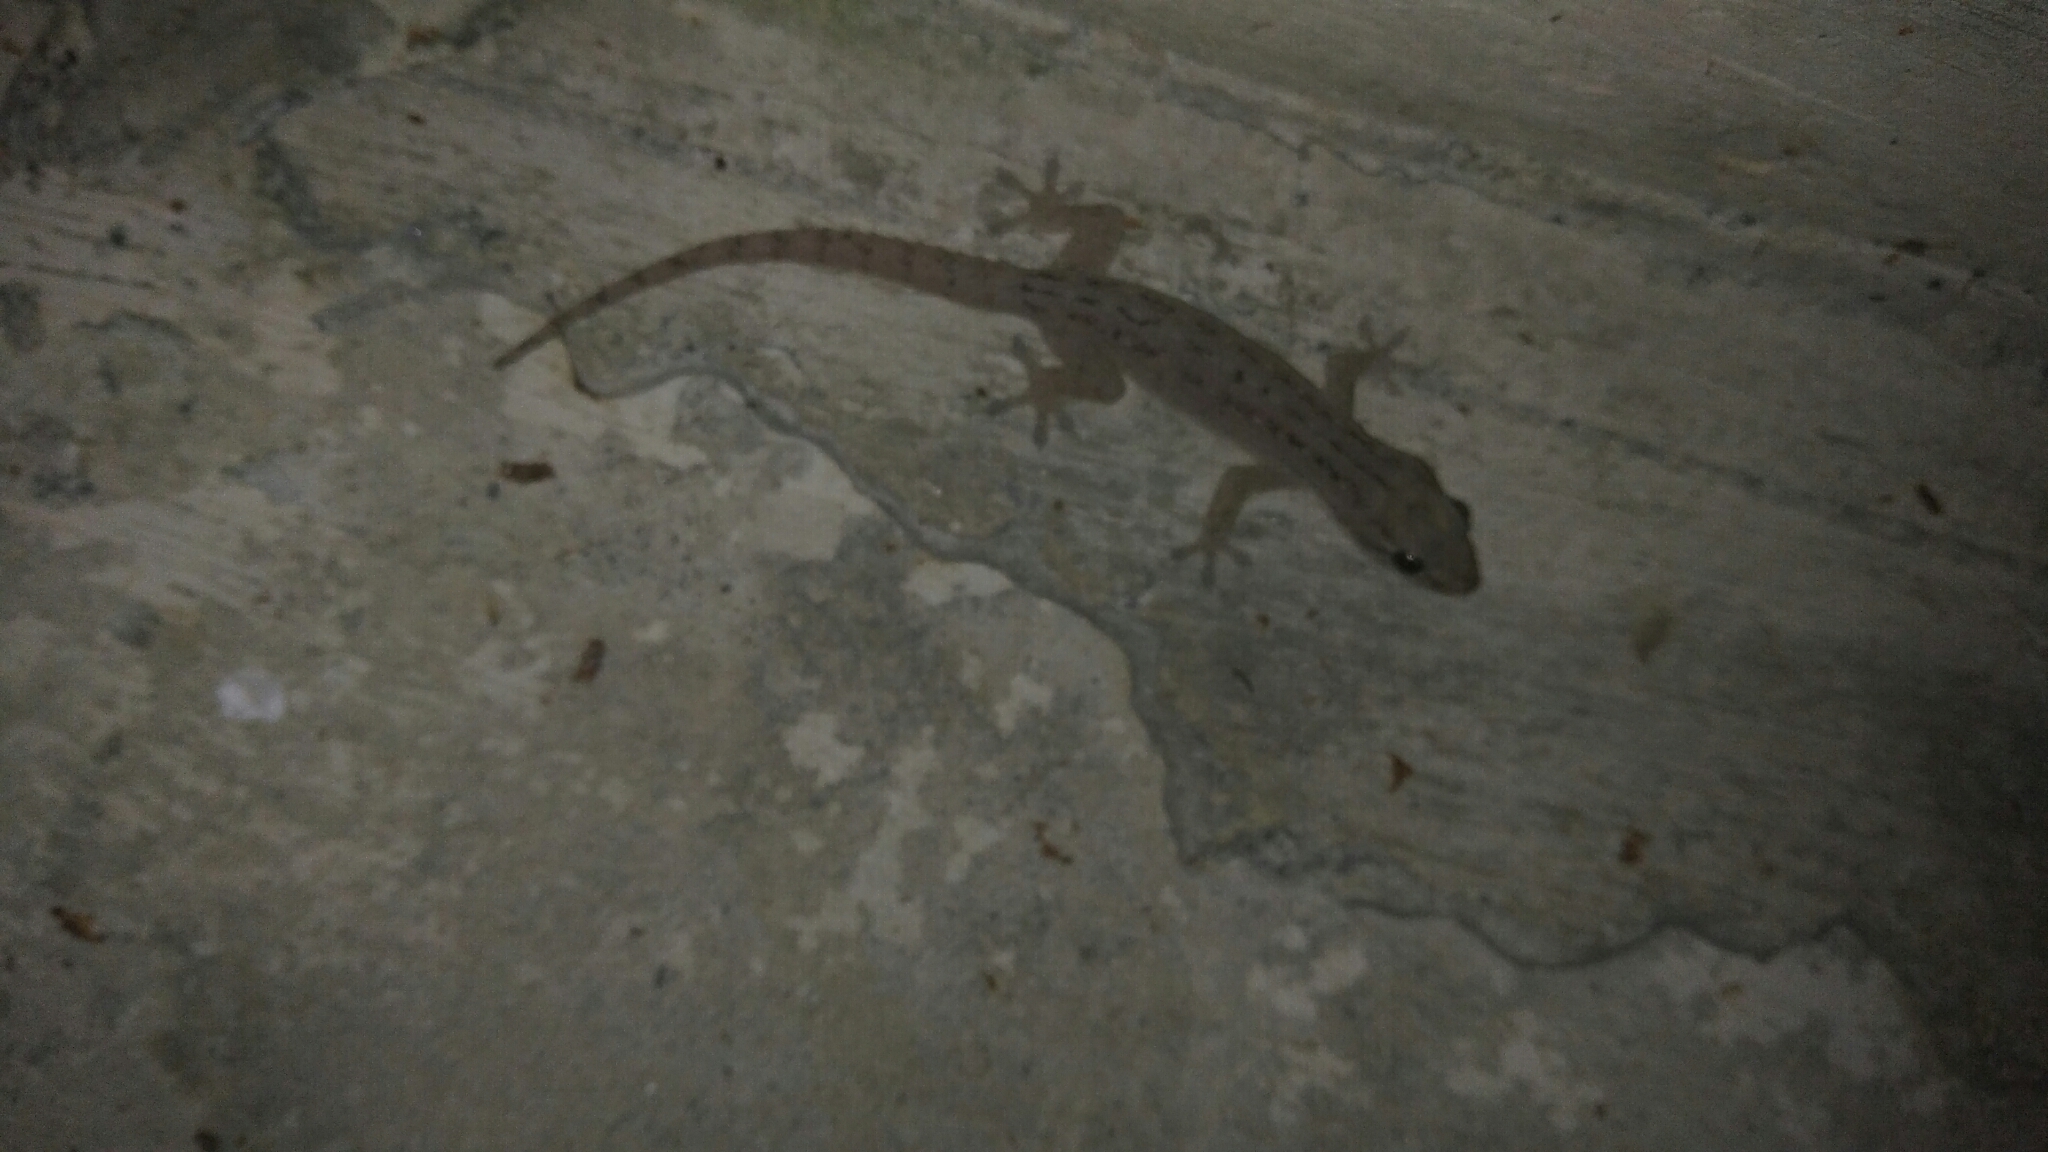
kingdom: Animalia
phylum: Chordata
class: Squamata
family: Gekkonidae
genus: Hemidactylus
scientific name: Hemidactylus frenatus
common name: Common house gecko
